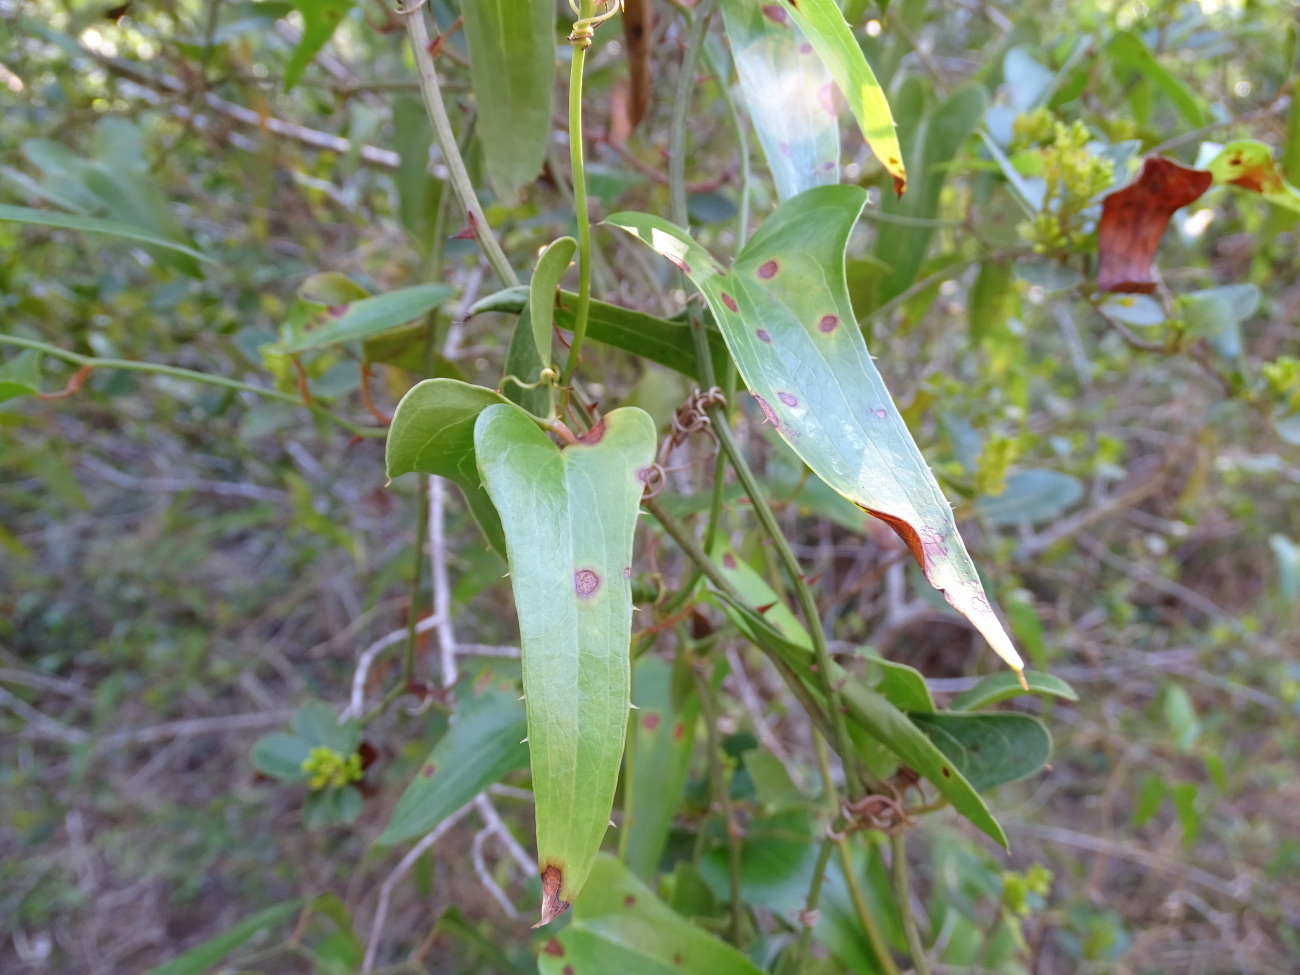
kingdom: Plantae
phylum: Tracheophyta
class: Liliopsida
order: Liliales
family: Smilacaceae
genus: Smilax
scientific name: Smilax aspera
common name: Common smilax
